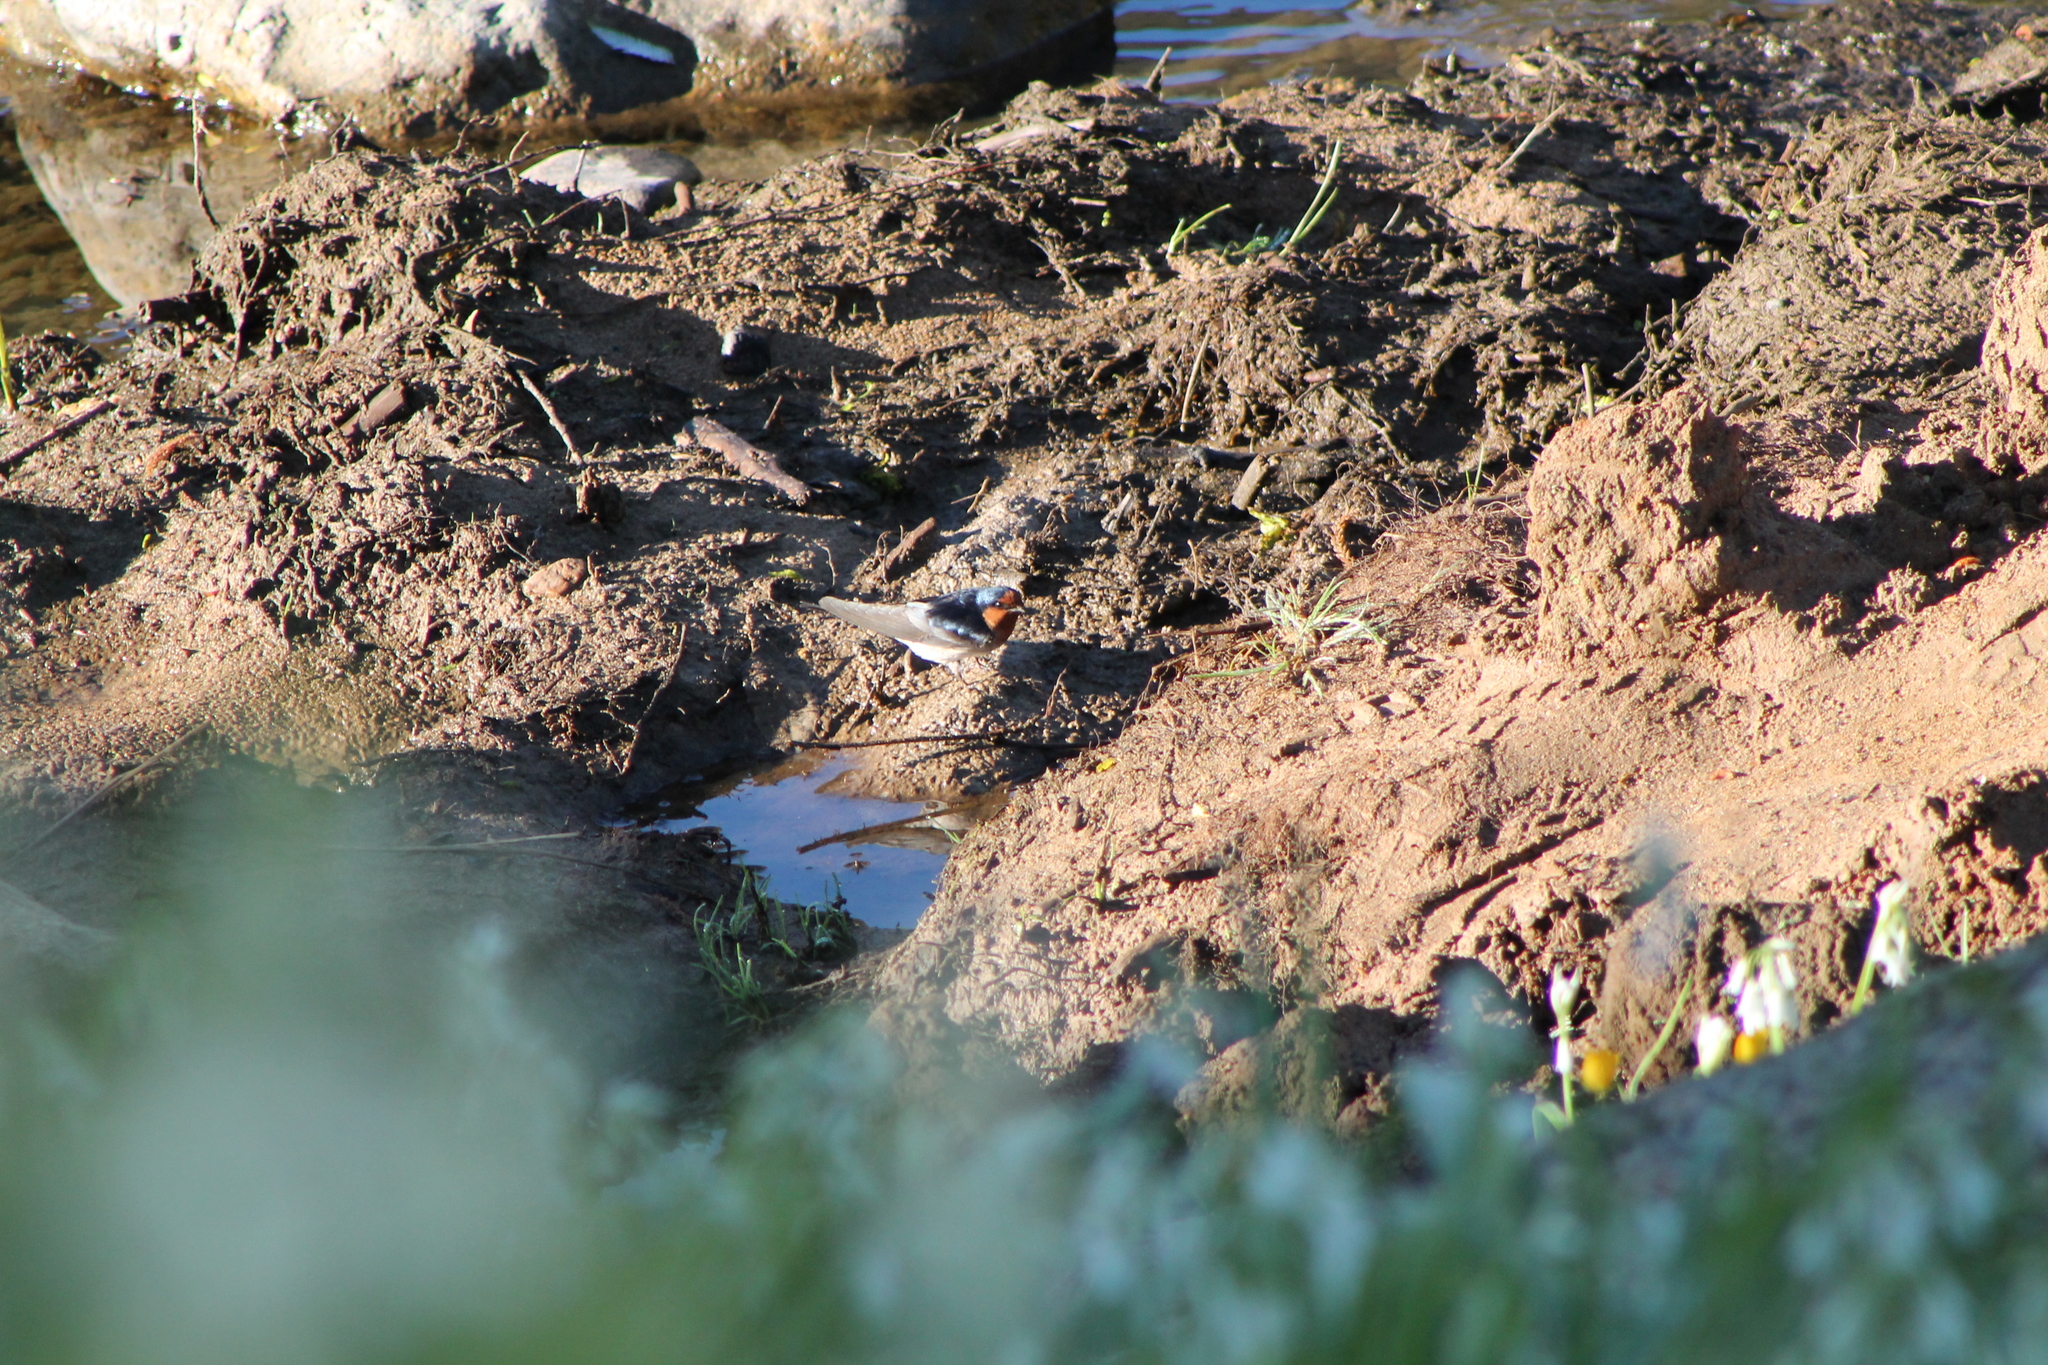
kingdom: Animalia
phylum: Chordata
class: Aves
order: Passeriformes
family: Hirundinidae
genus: Hirundo
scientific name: Hirundo neoxena
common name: Welcome swallow
